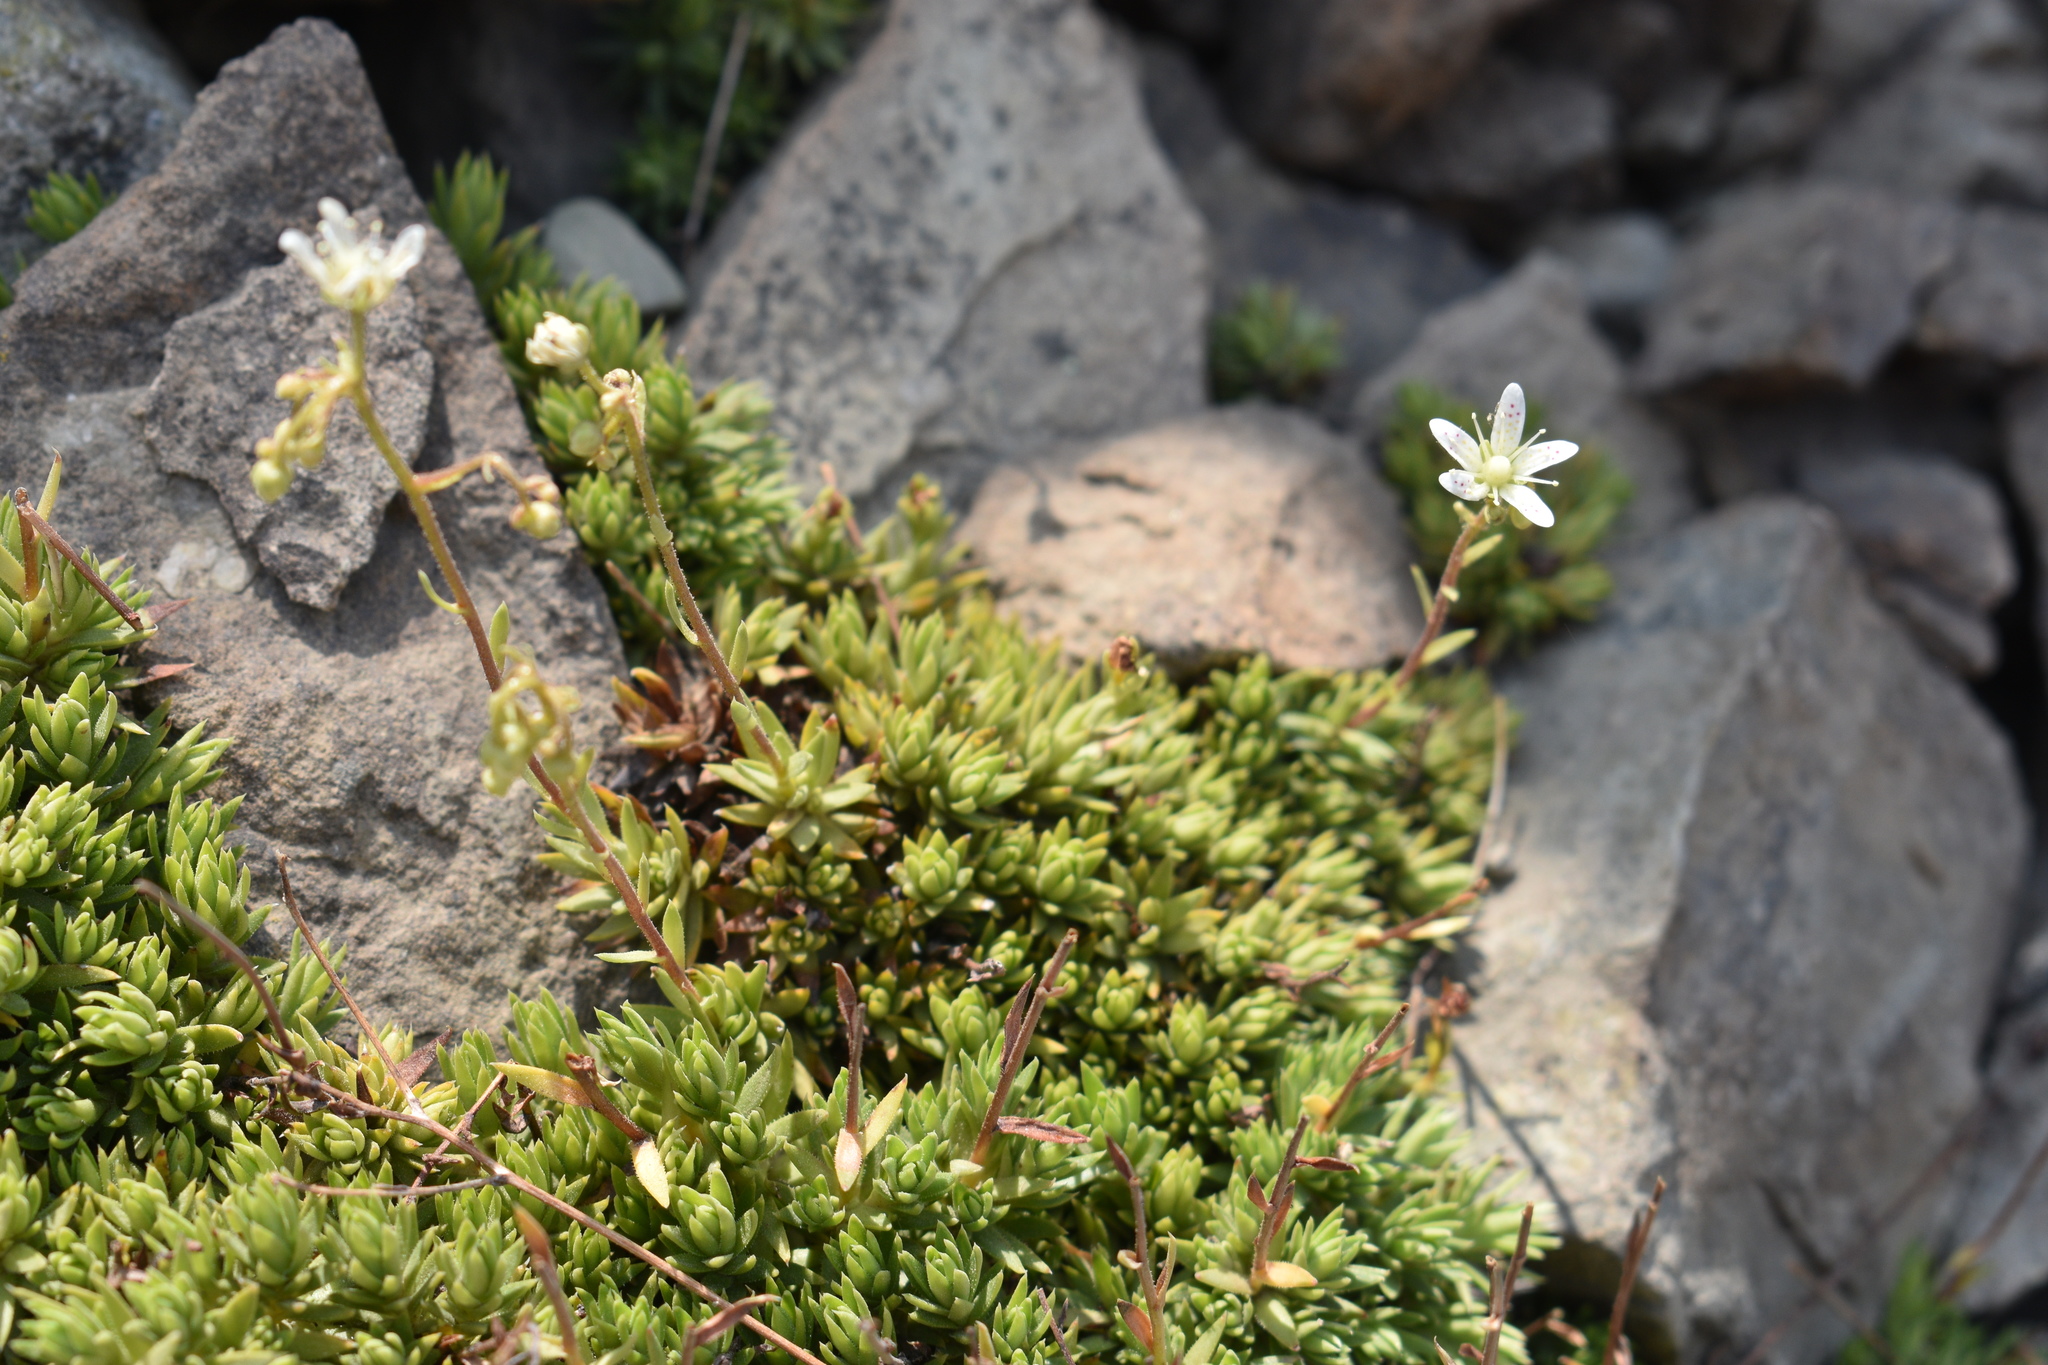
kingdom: Plantae
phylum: Tracheophyta
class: Magnoliopsida
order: Saxifragales
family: Saxifragaceae
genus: Saxifraga
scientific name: Saxifraga bronchialis
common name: Matted saxifrage
